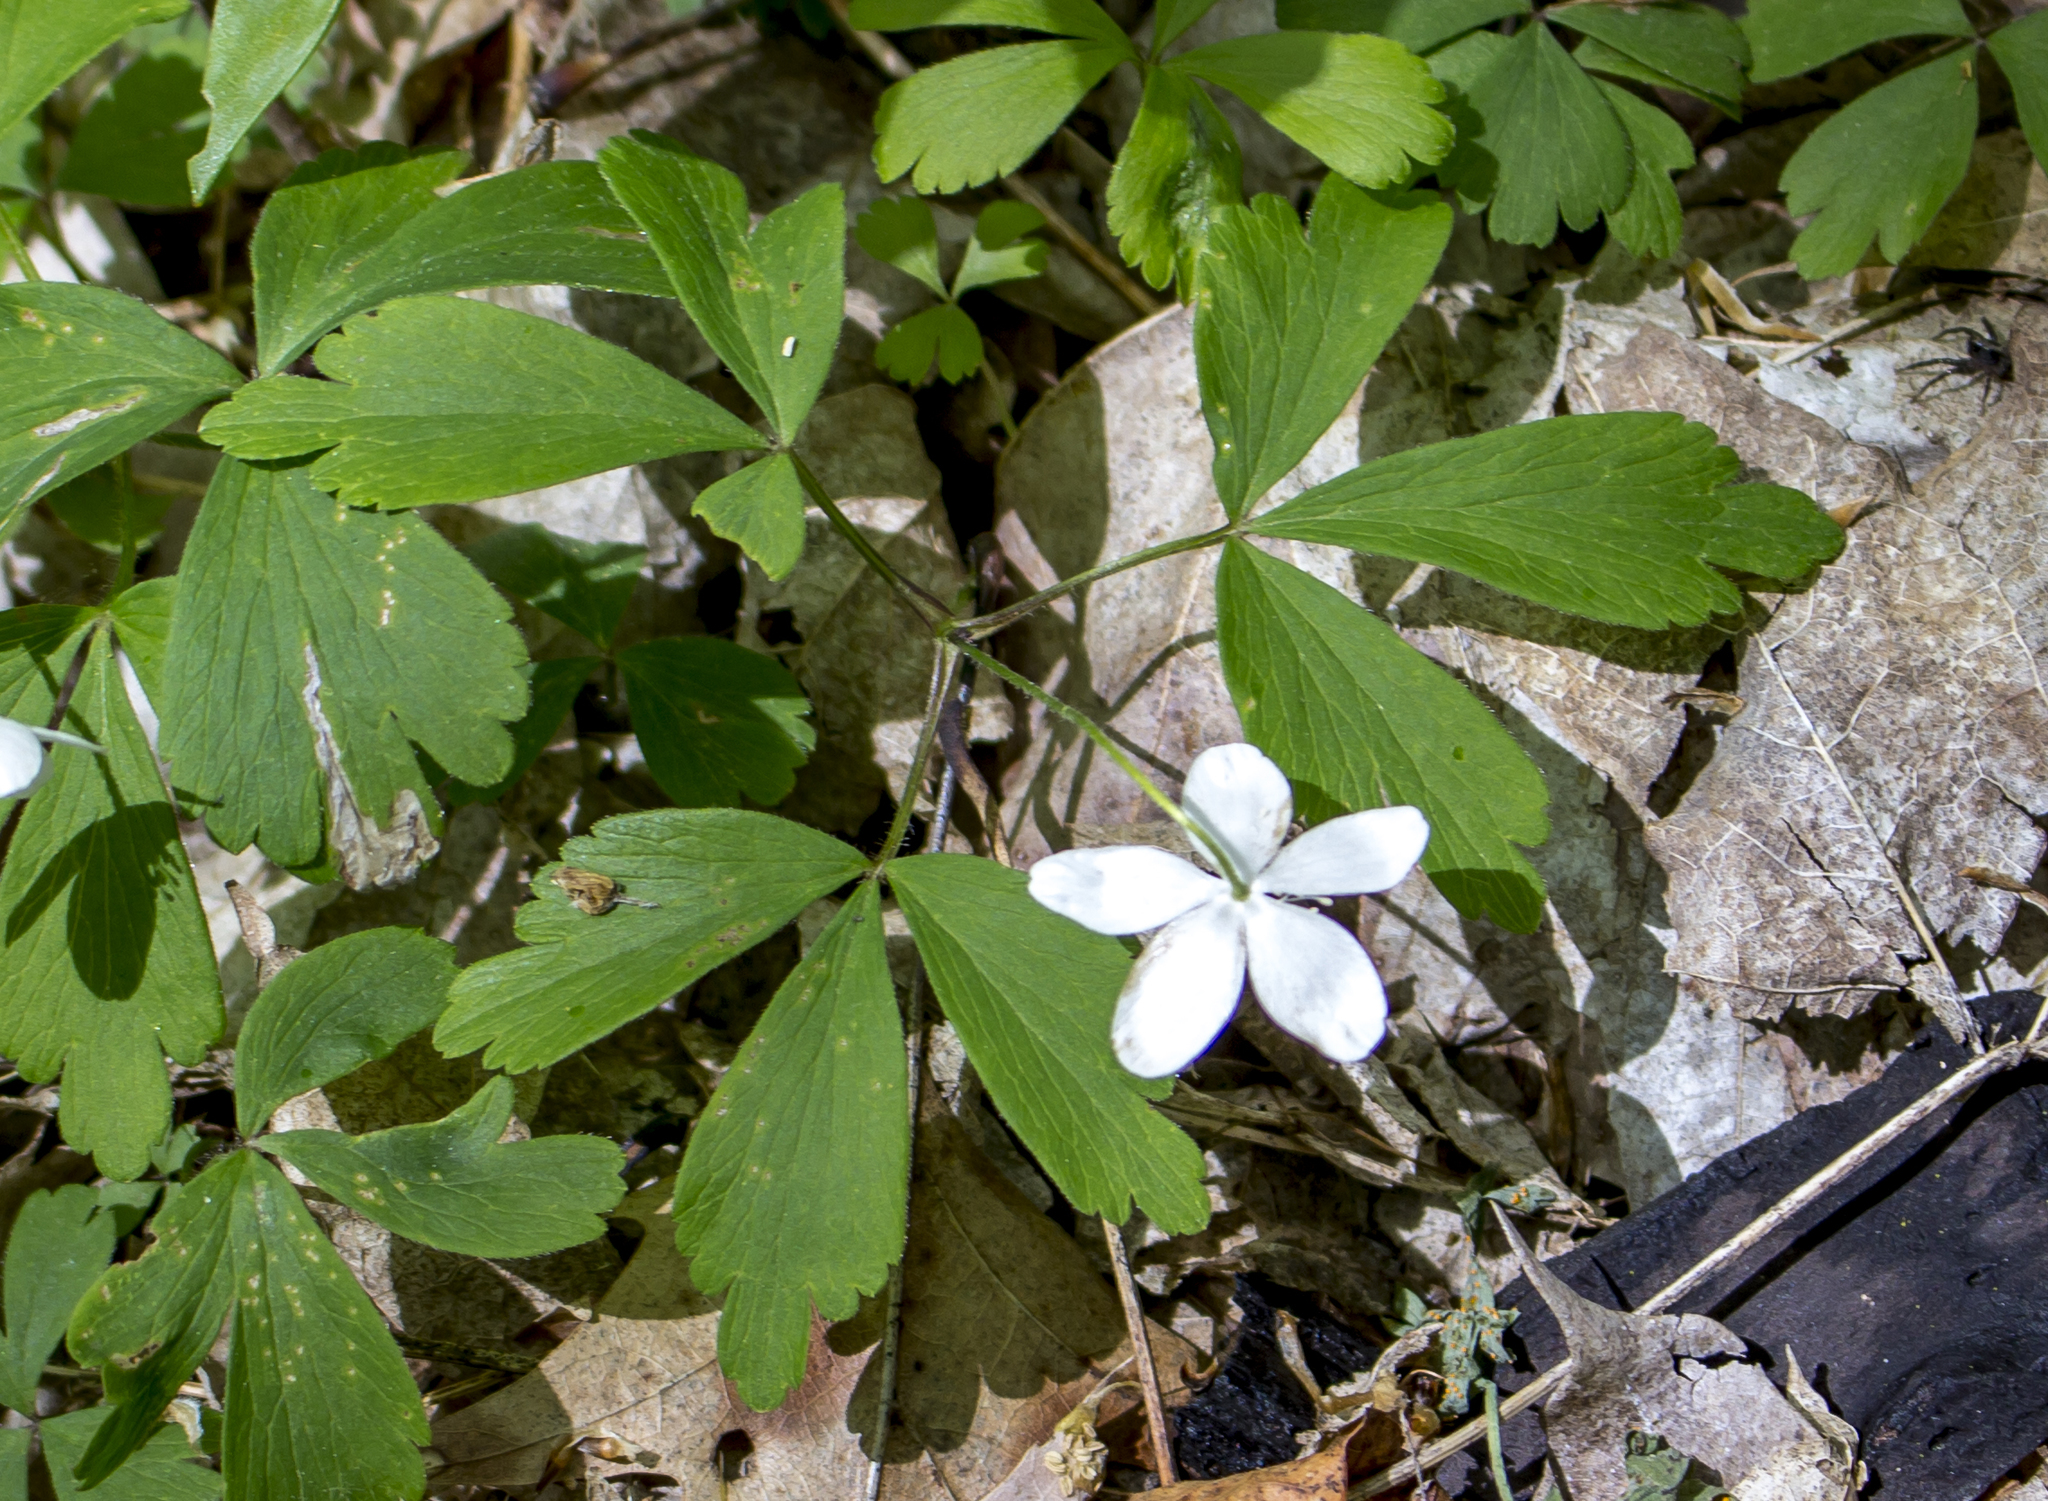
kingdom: Plantae
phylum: Tracheophyta
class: Magnoliopsida
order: Ranunculales
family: Ranunculaceae
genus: Anemone
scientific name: Anemone quinquefolia
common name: Wood anemone
